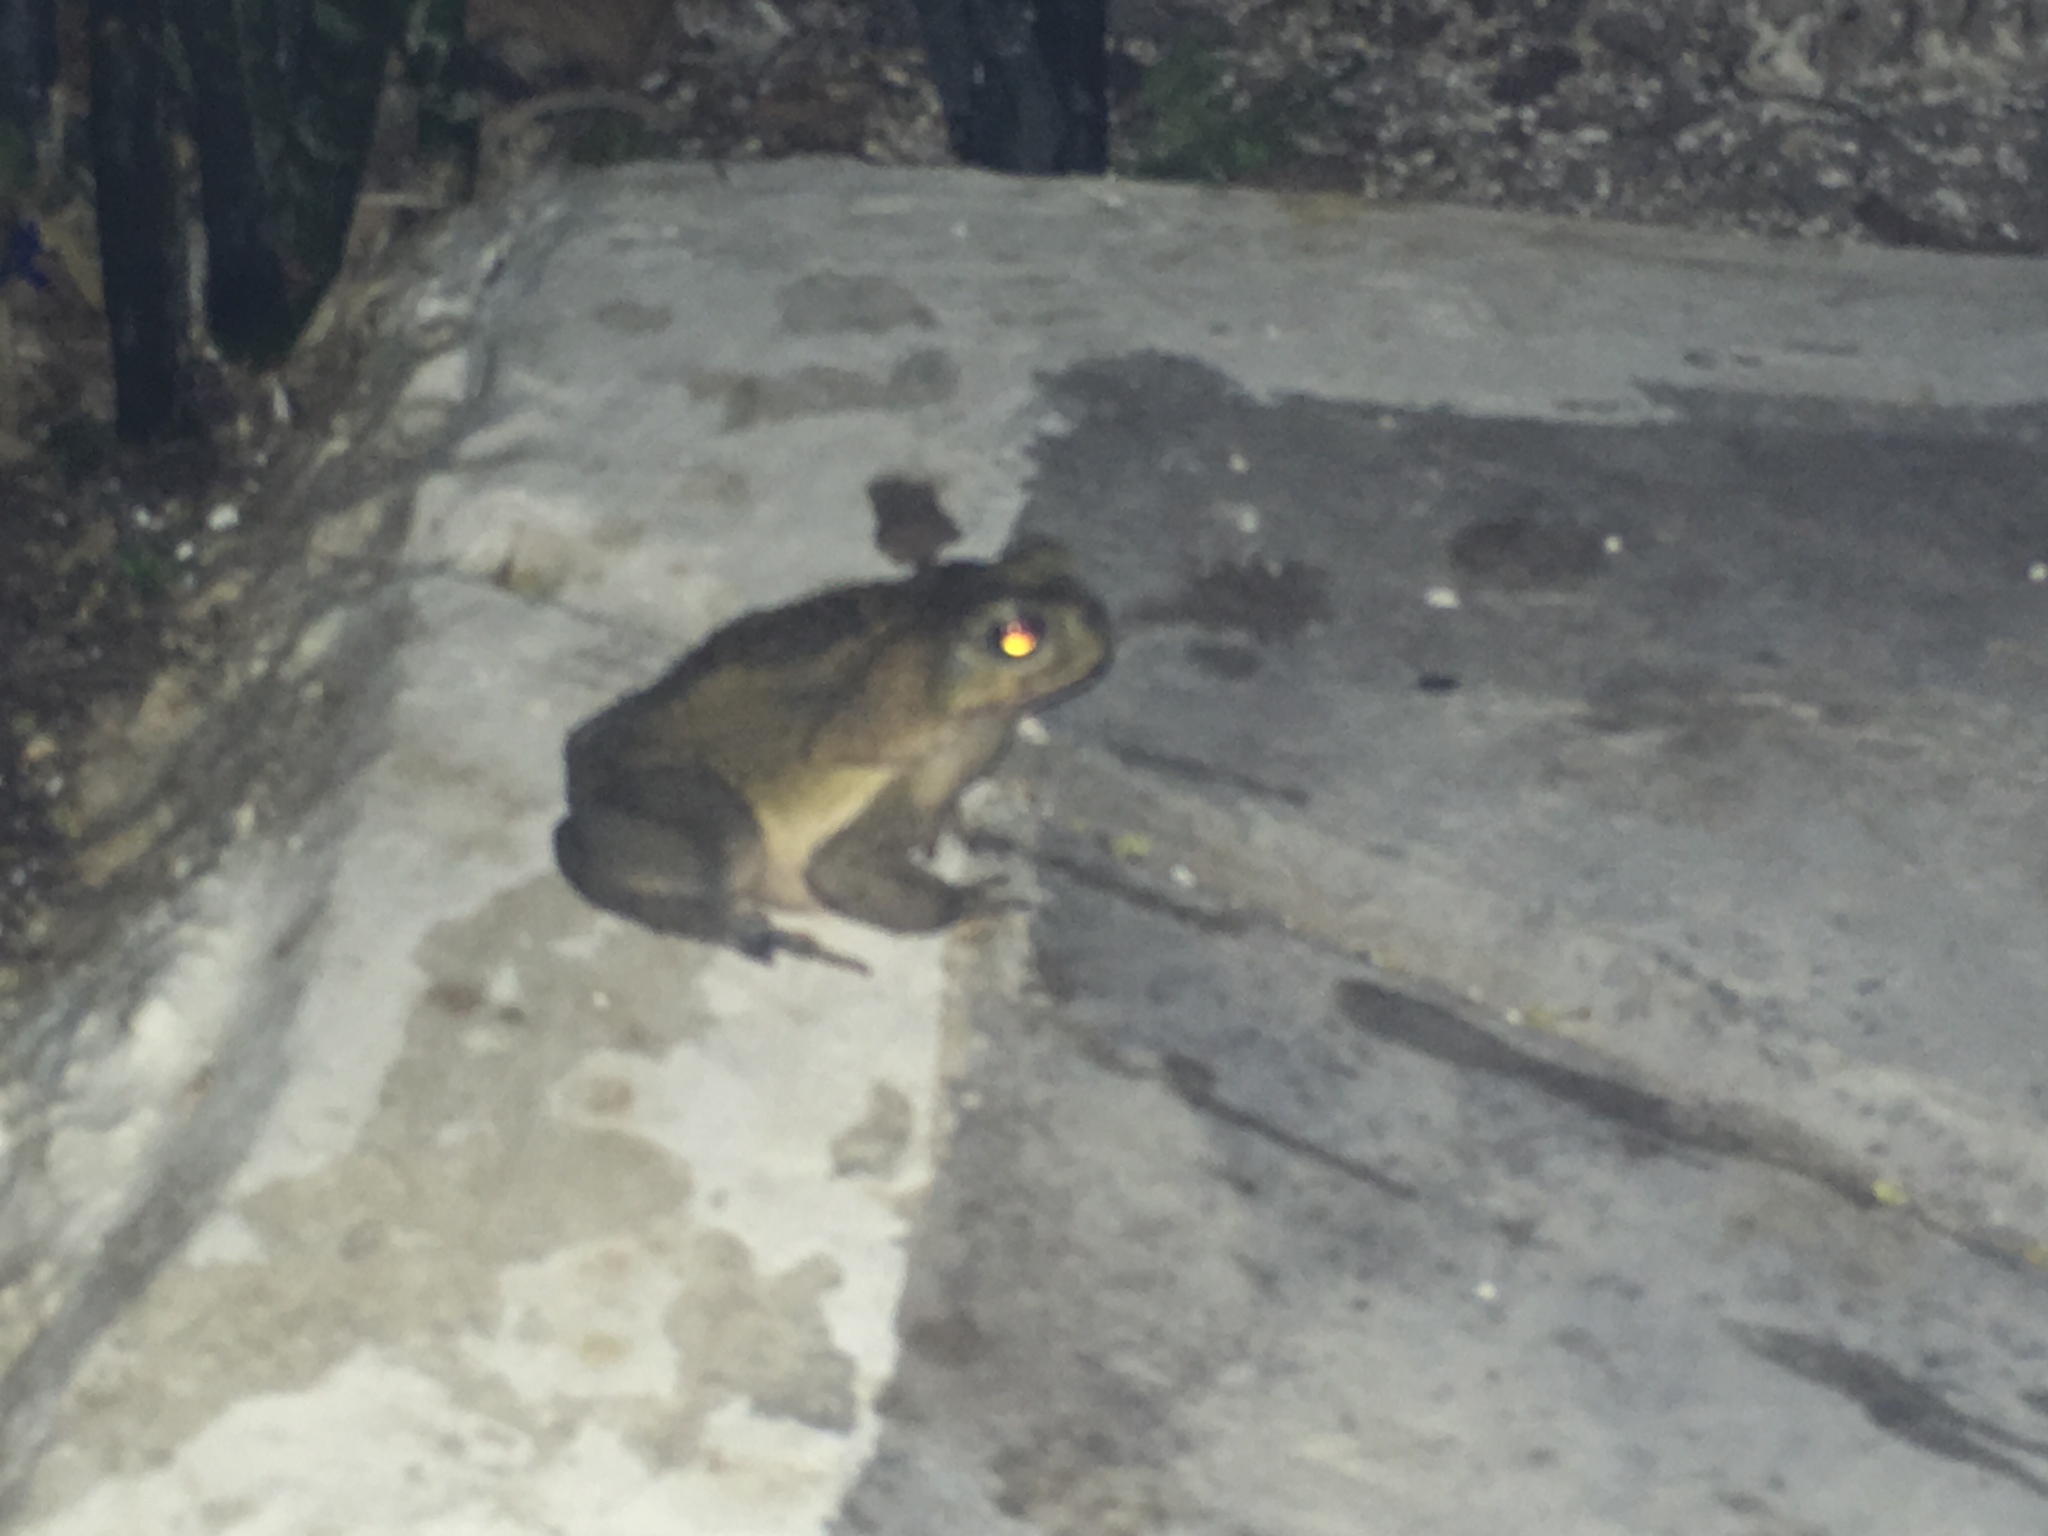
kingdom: Animalia
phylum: Chordata
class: Amphibia
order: Anura
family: Bufonidae
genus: Rhinella
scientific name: Rhinella horribilis
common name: Mesoamerican cane toad
